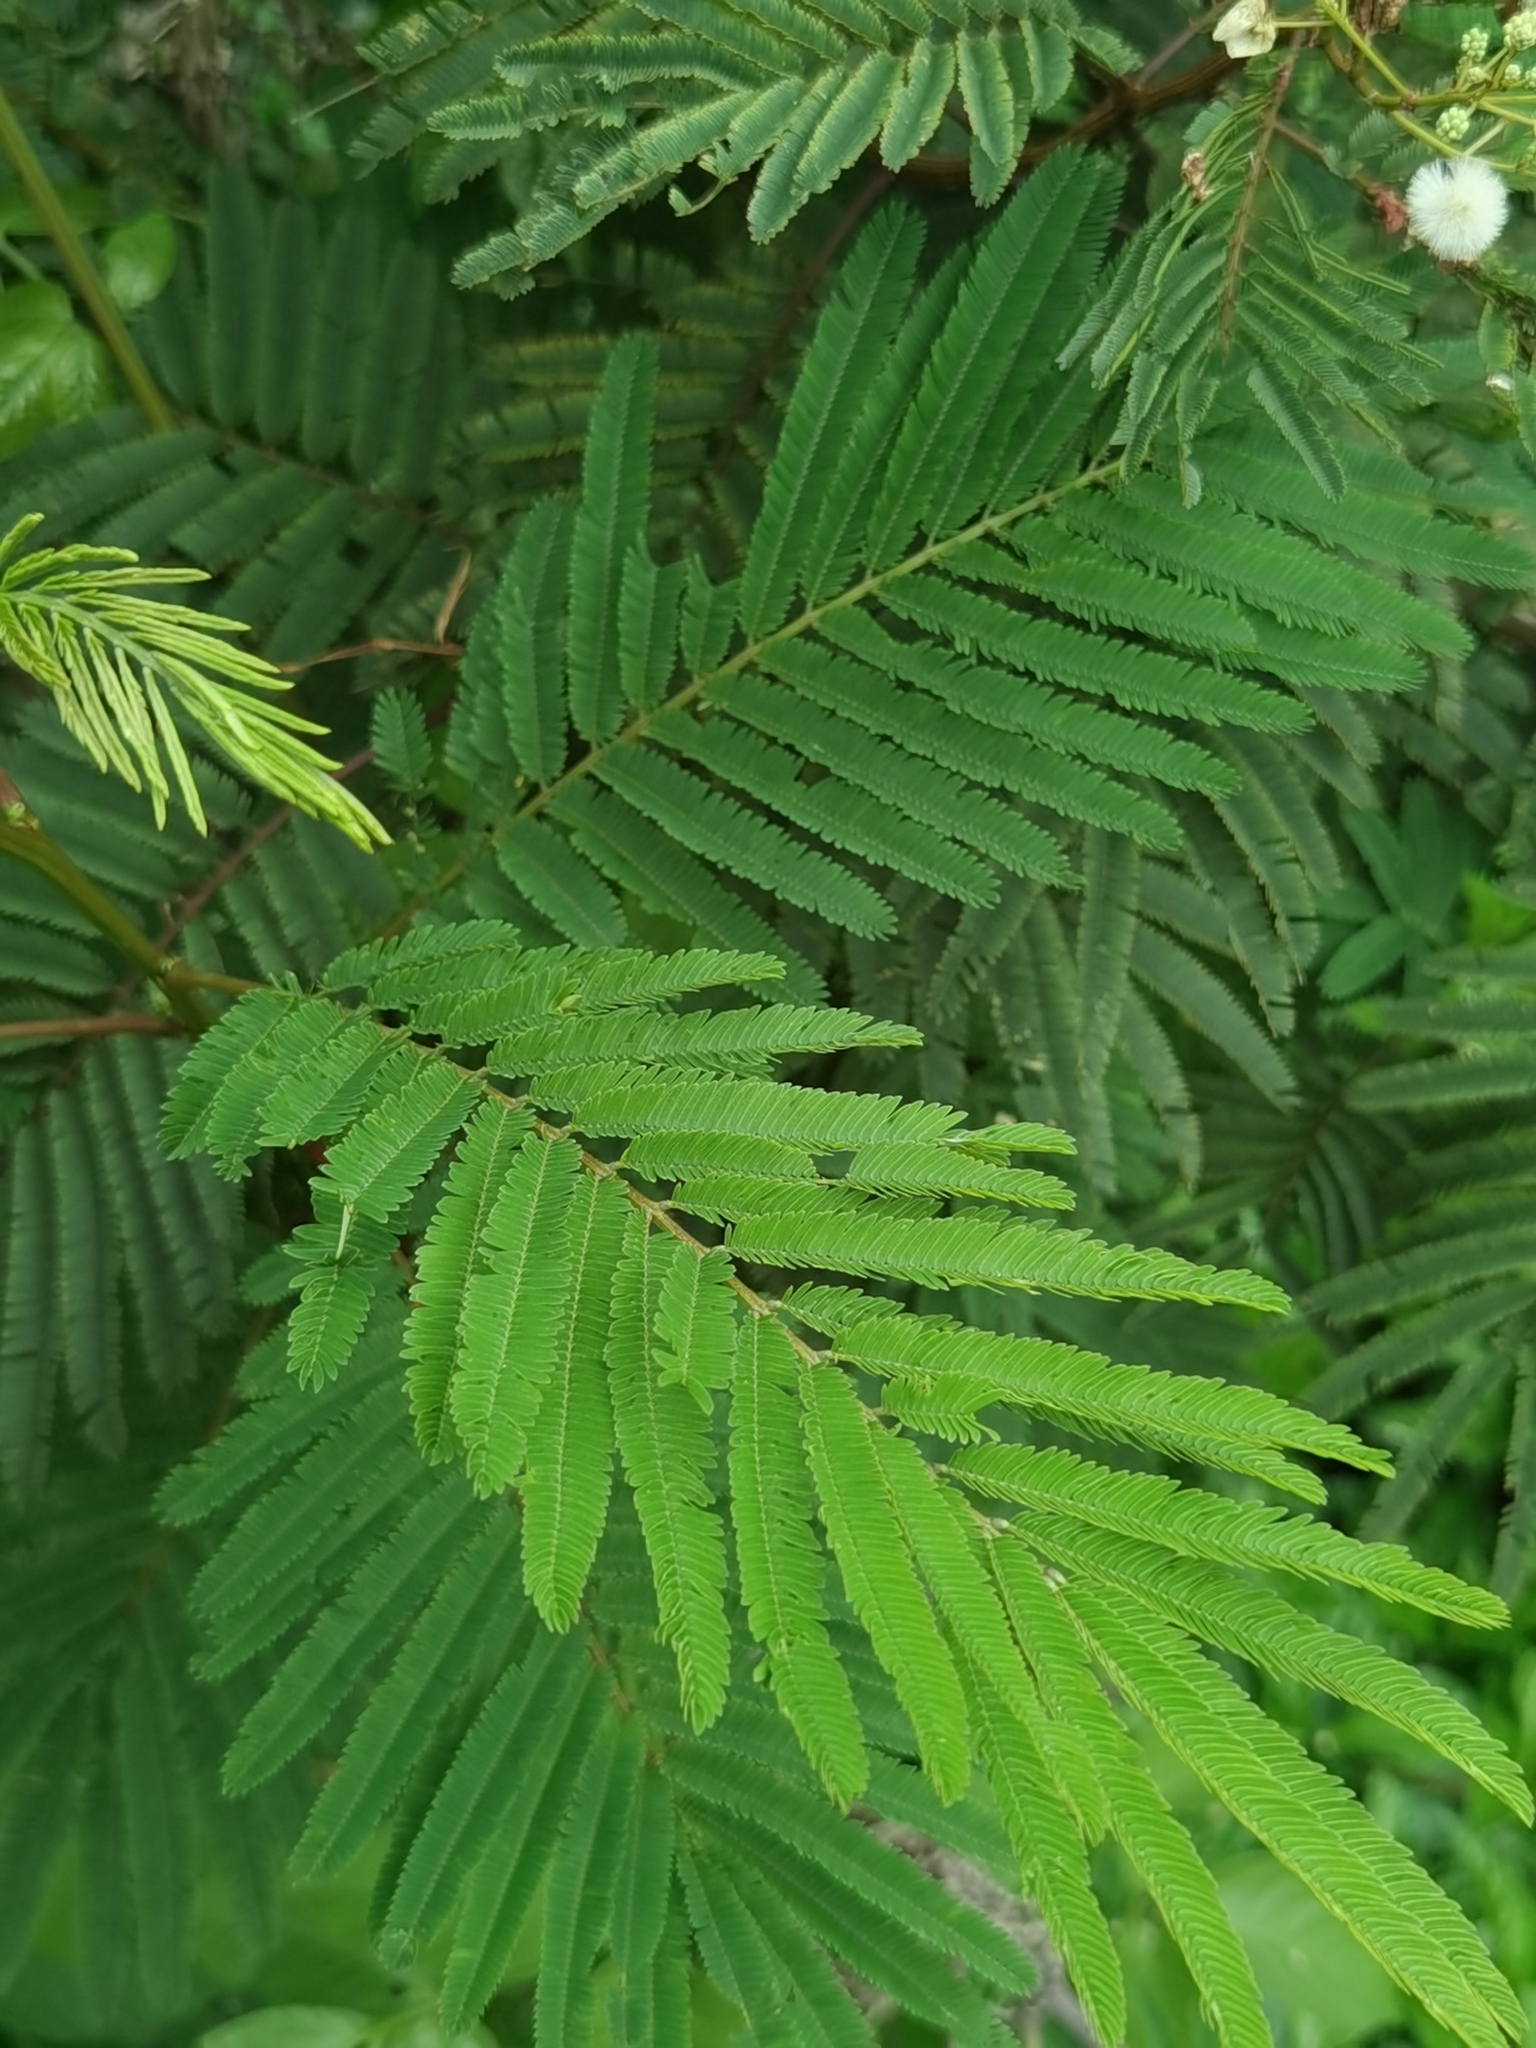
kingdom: Plantae
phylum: Tracheophyta
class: Magnoliopsida
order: Fabales
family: Fabaceae
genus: Acaciella
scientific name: Acaciella angustissima
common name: Prairie acacia
